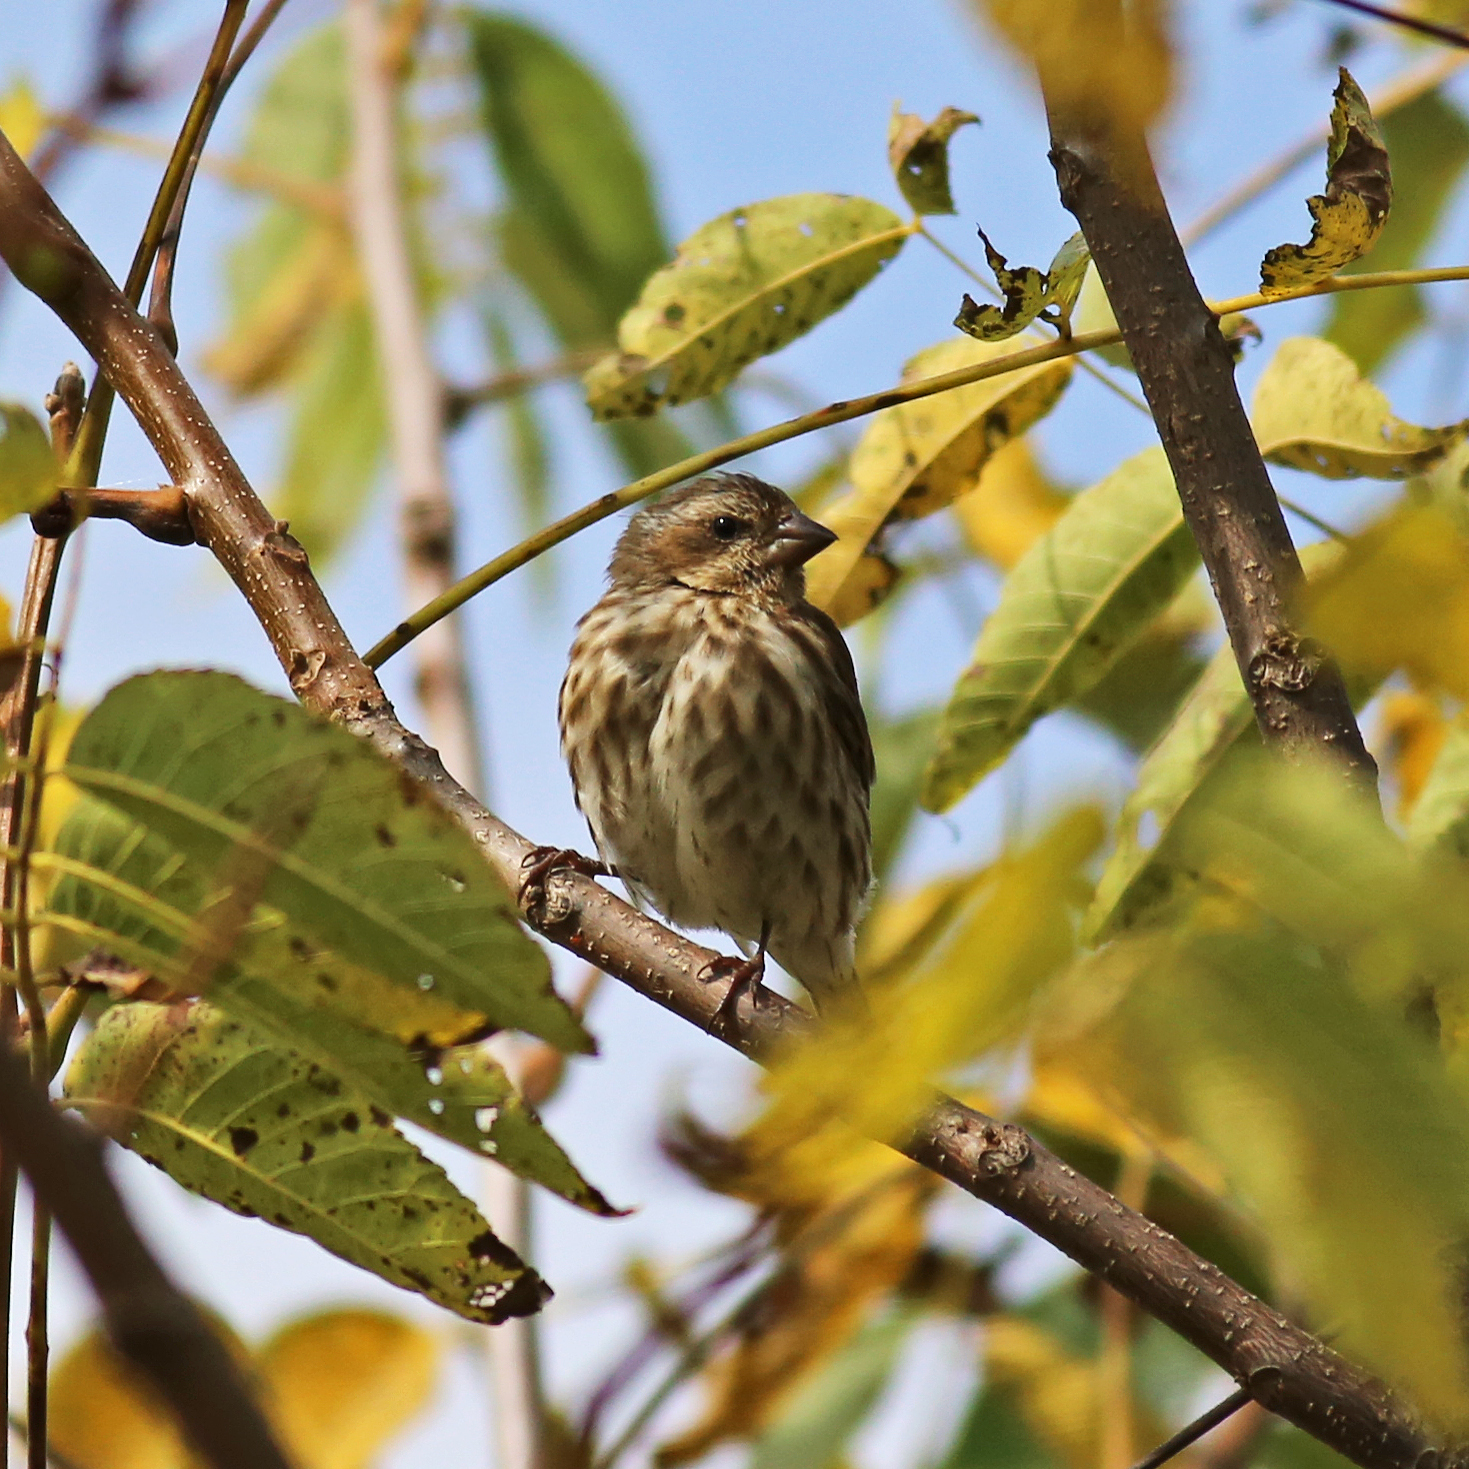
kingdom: Animalia
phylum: Chordata
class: Aves
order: Passeriformes
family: Fringillidae
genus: Haemorhous
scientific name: Haemorhous purpureus
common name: Purple finch
